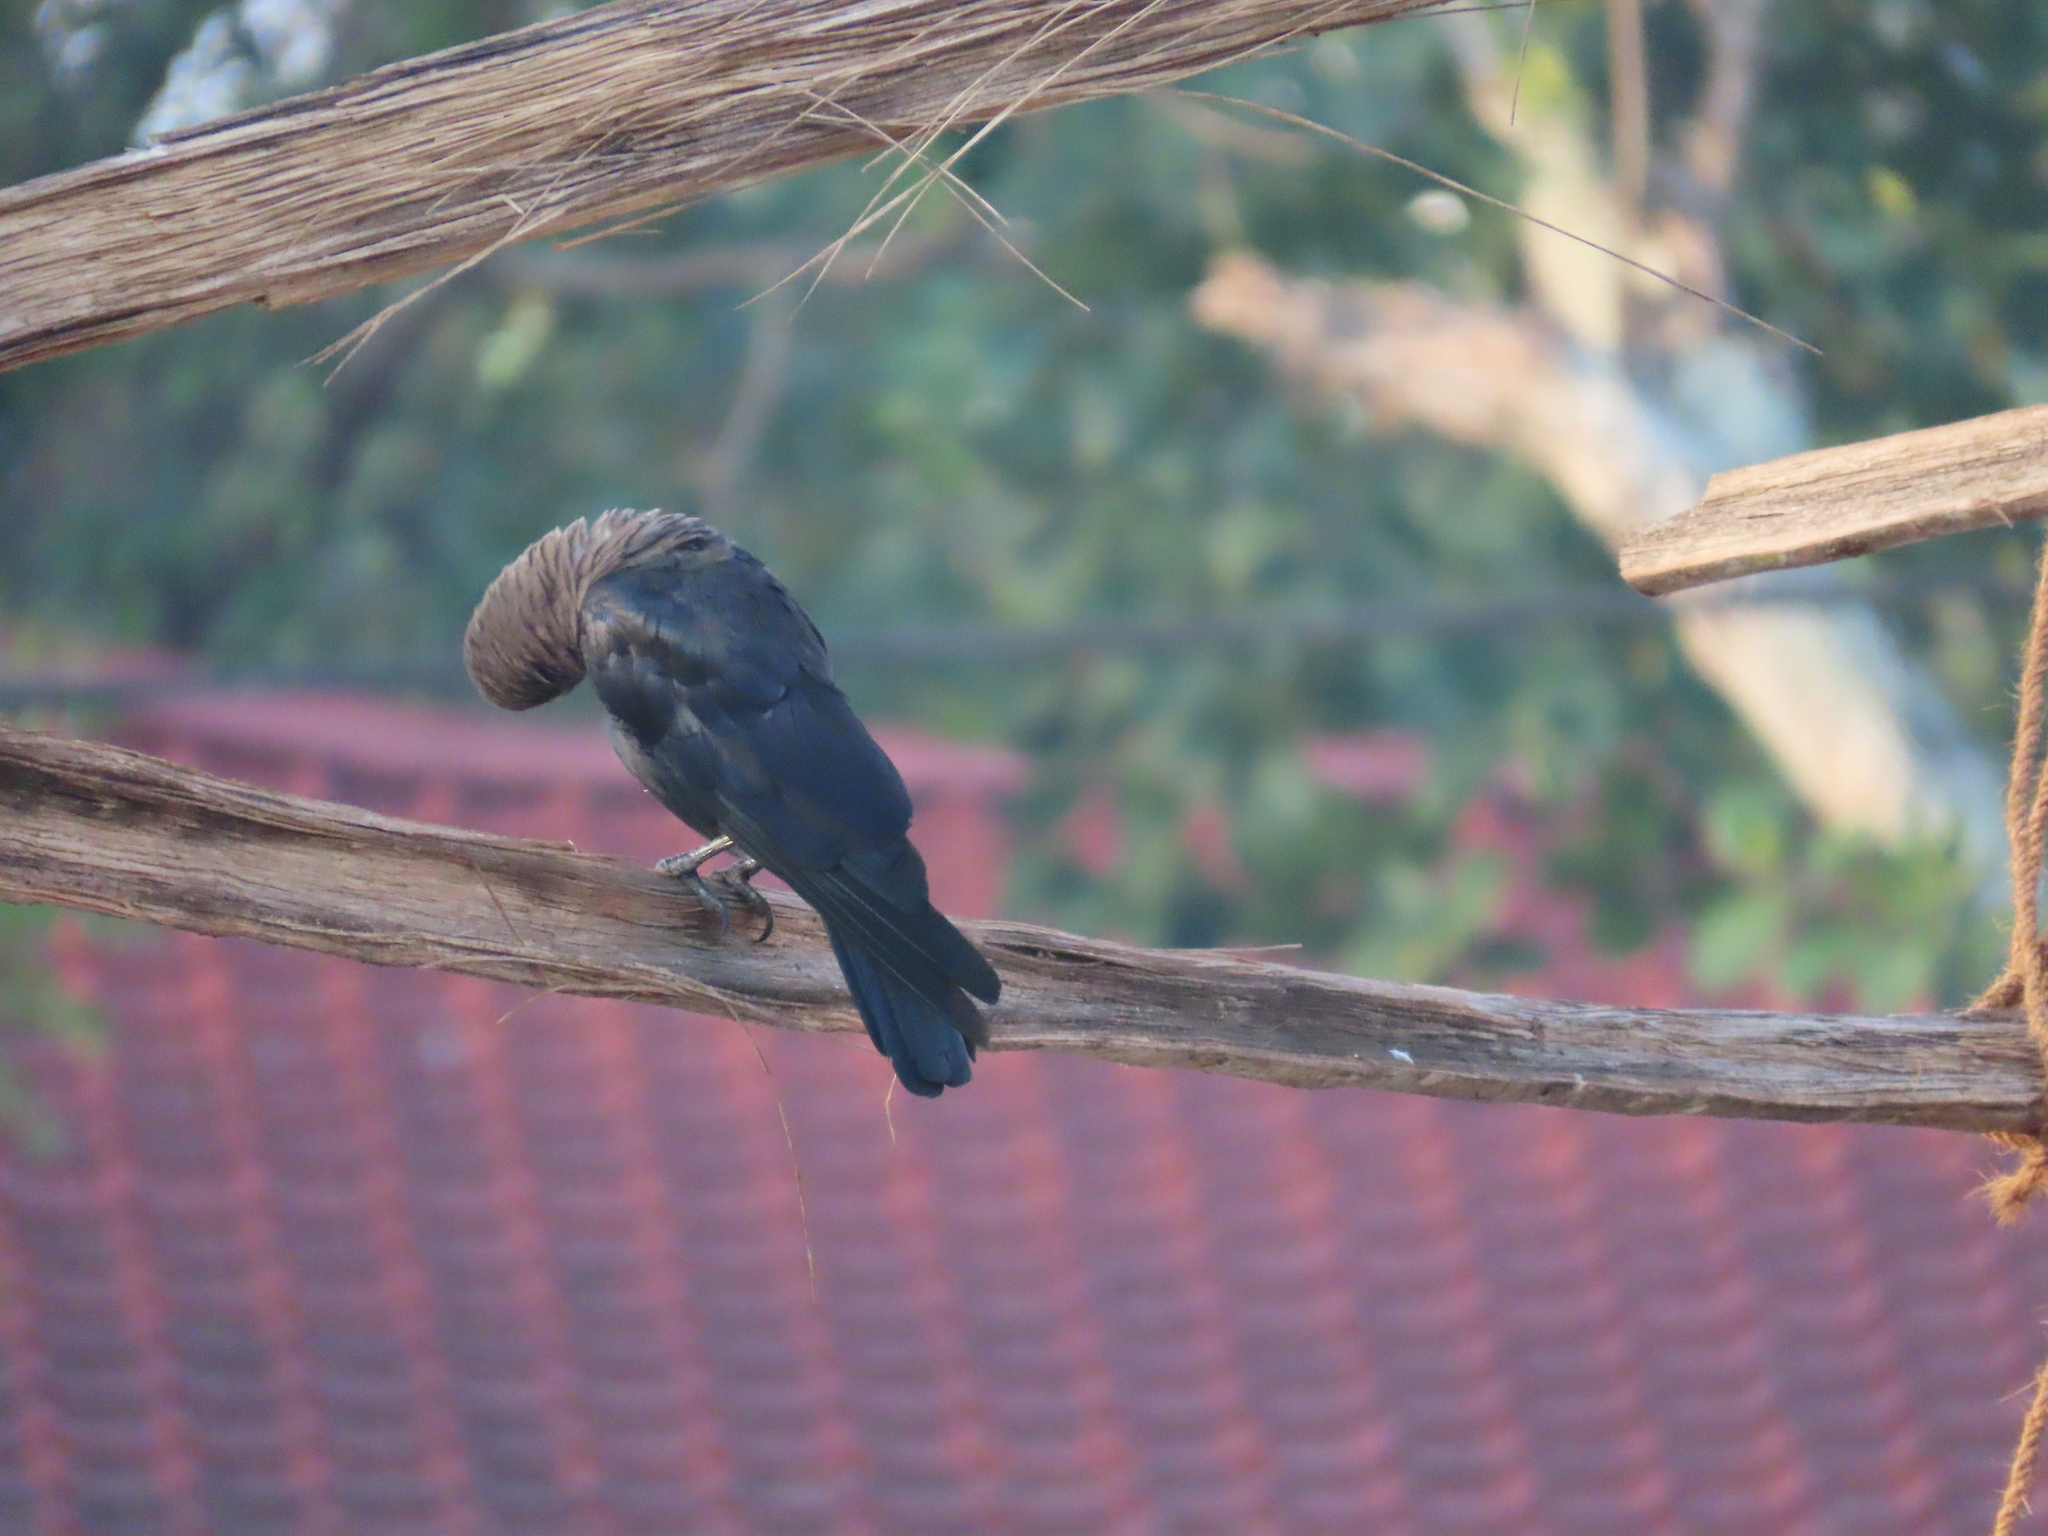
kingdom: Animalia
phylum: Chordata
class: Aves
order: Passeriformes
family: Corvidae
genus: Corvus
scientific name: Corvus splendens
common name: House crow
